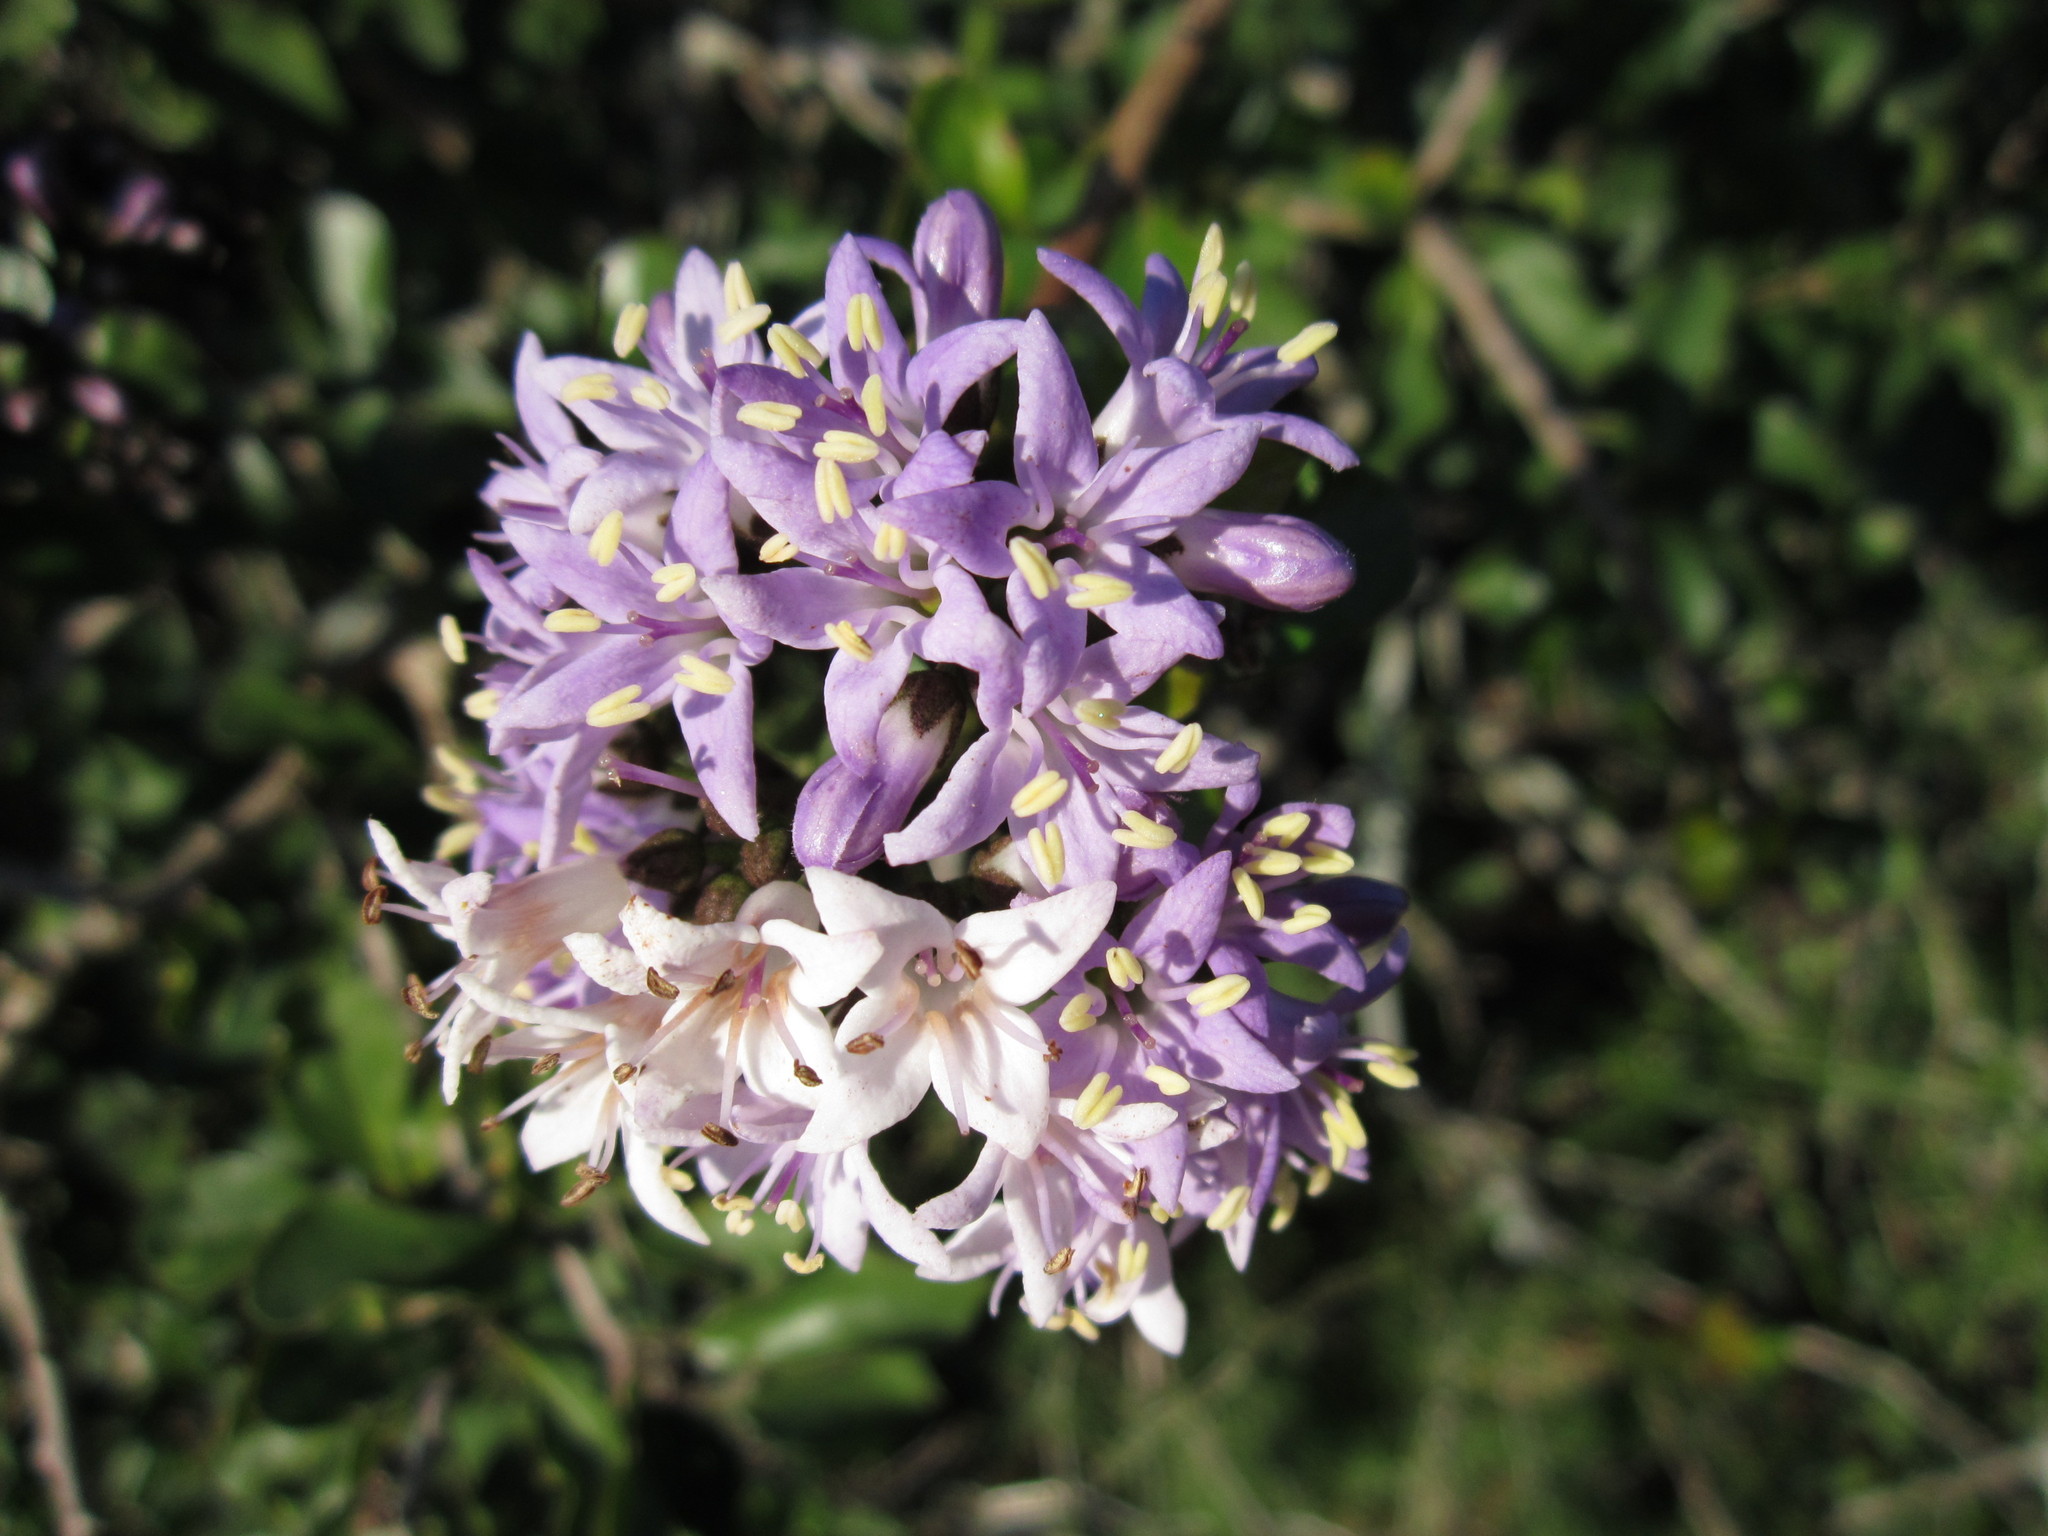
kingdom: Plantae
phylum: Tracheophyta
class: Magnoliopsida
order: Boraginales
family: Ehretiaceae
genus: Ehretia
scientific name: Ehretia rigida
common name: Cape lilac
